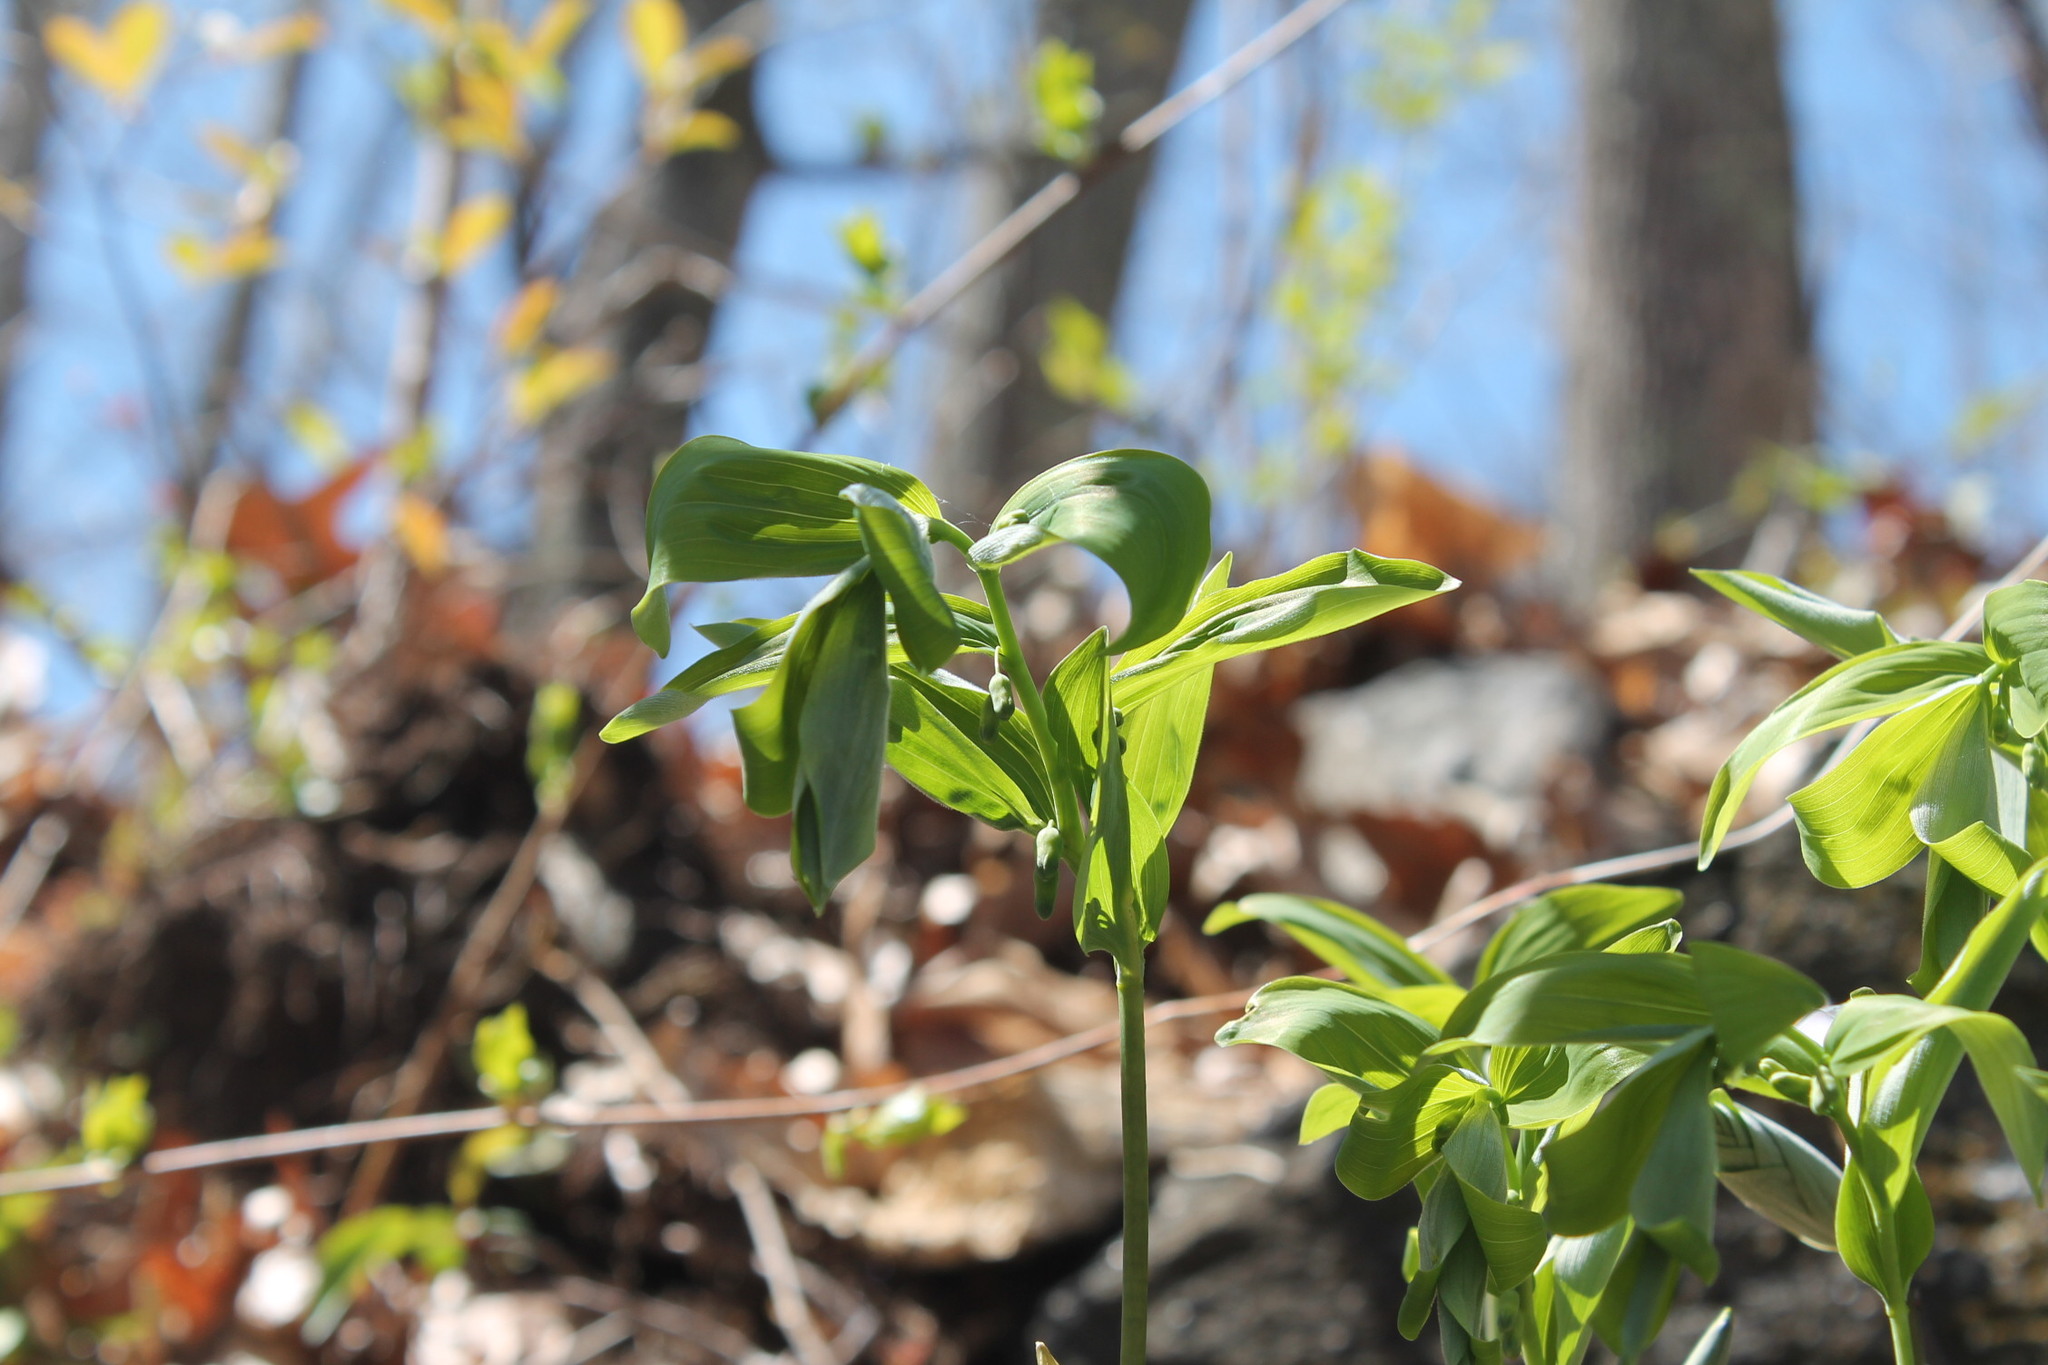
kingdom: Plantae
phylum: Tracheophyta
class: Liliopsida
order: Asparagales
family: Asparagaceae
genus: Polygonatum
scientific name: Polygonatum pubescens
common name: Downy solomon's seal
